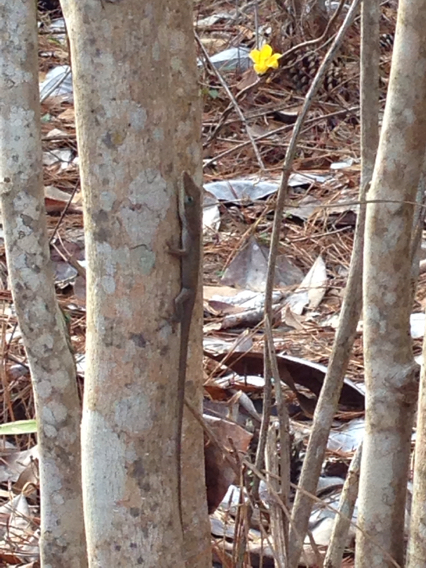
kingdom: Animalia
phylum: Chordata
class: Squamata
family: Dactyloidae
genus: Anolis
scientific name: Anolis carolinensis
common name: Green anole
